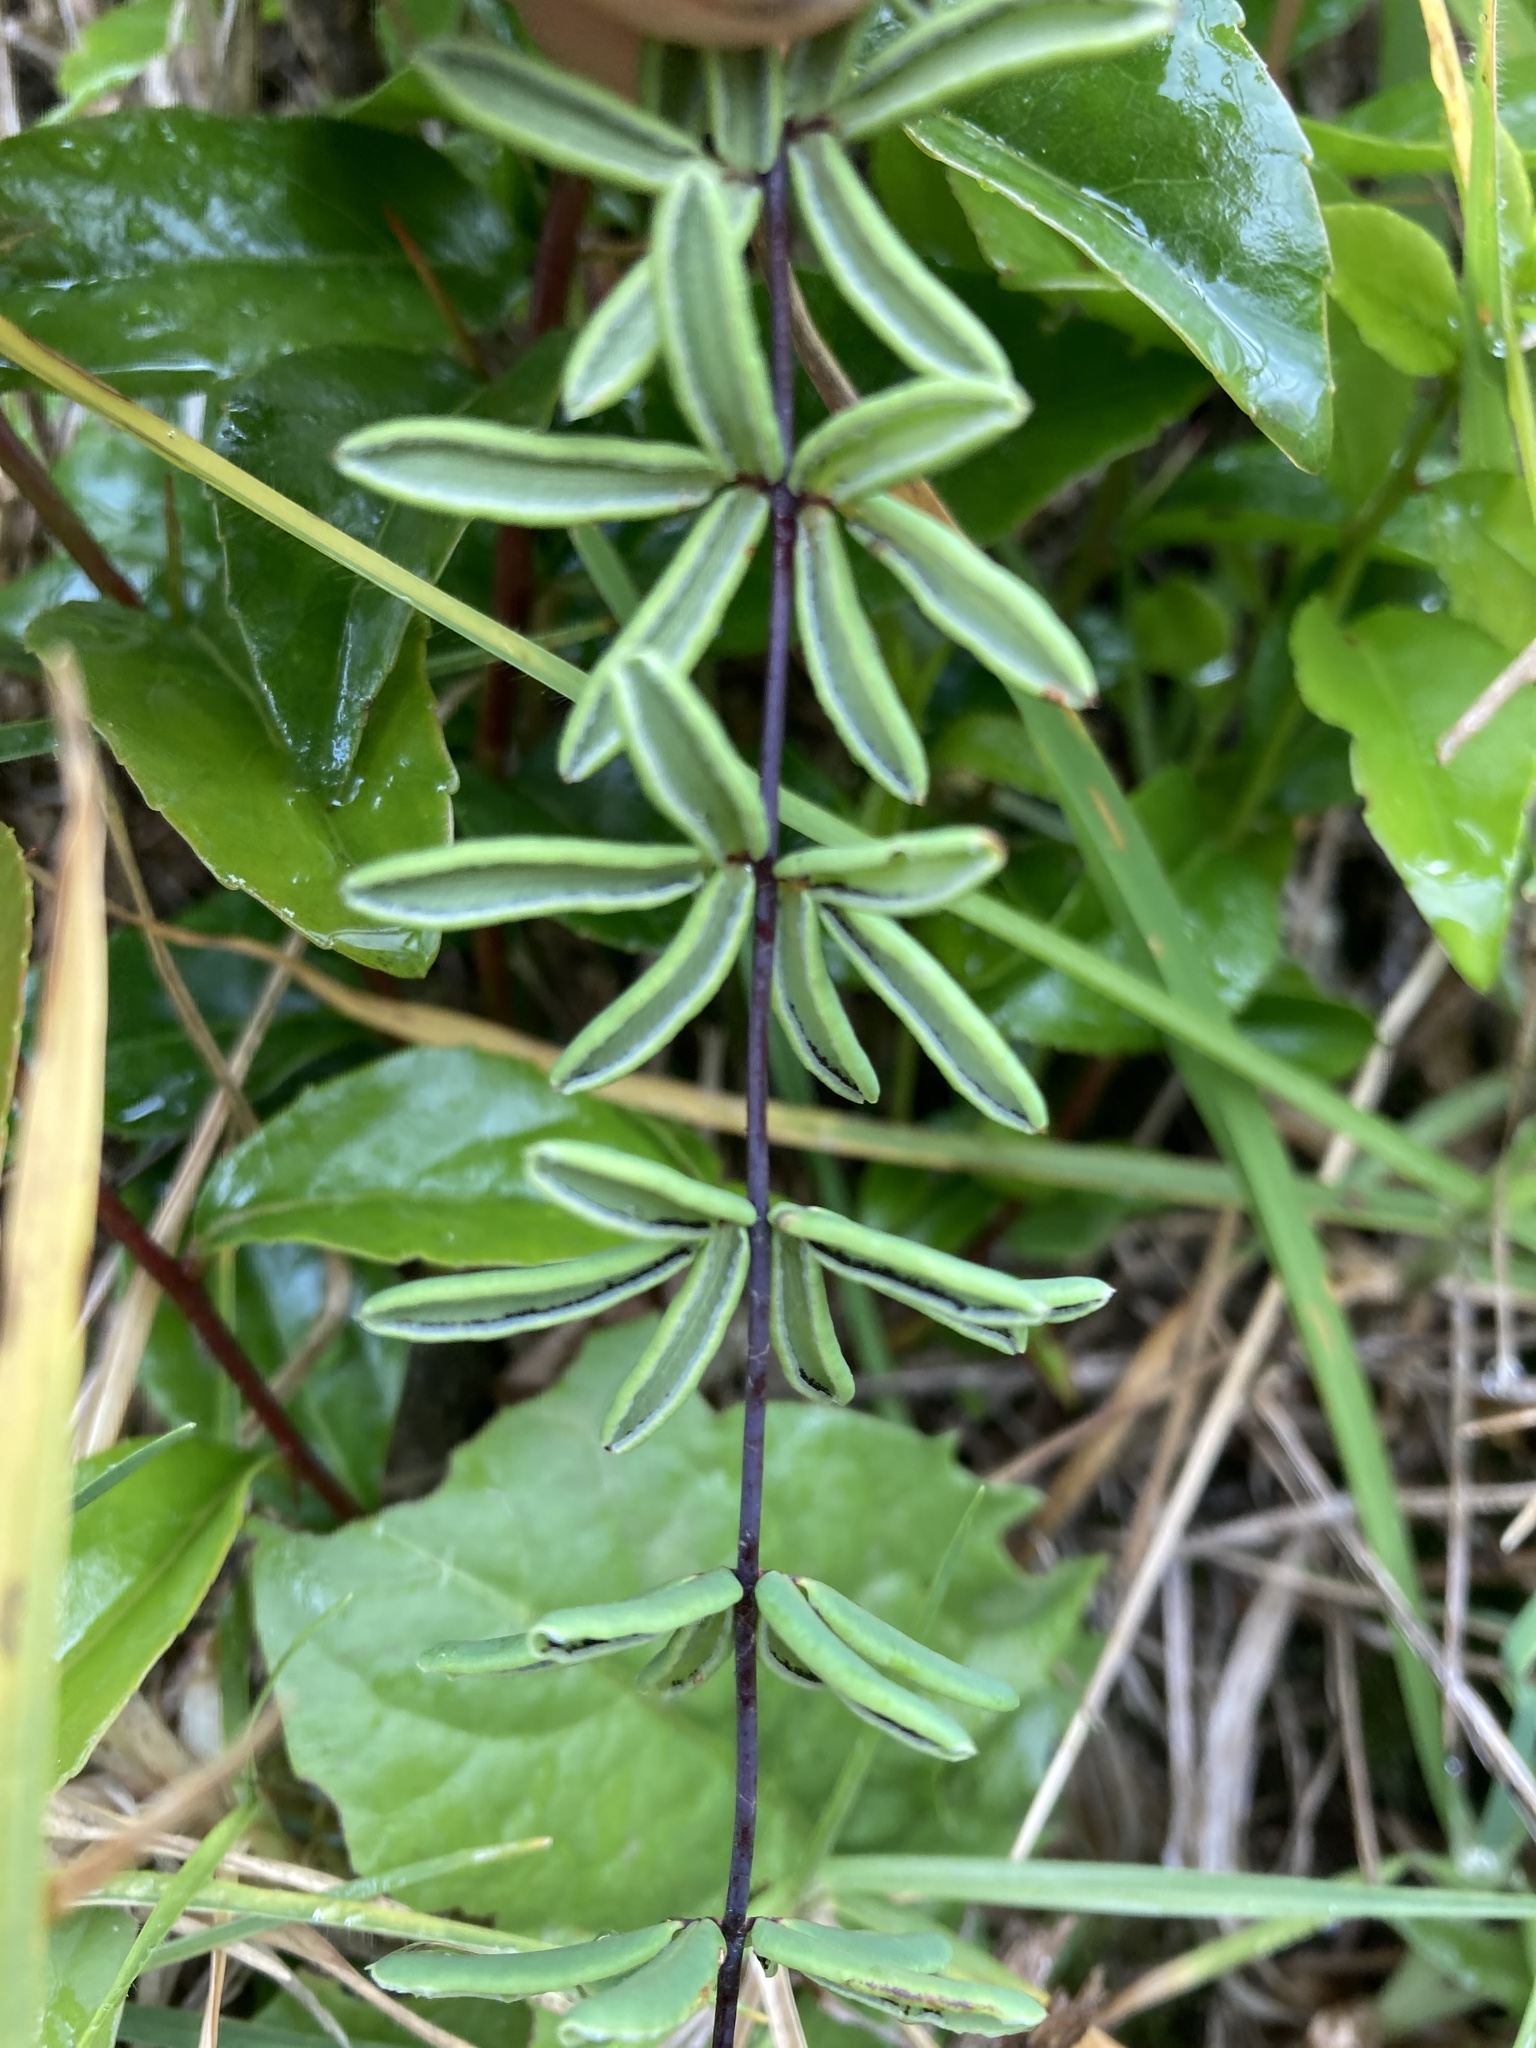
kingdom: Plantae
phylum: Tracheophyta
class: Polypodiopsida
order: Polypodiales
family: Pteridaceae
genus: Pellaea
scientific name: Pellaea ternifolia
